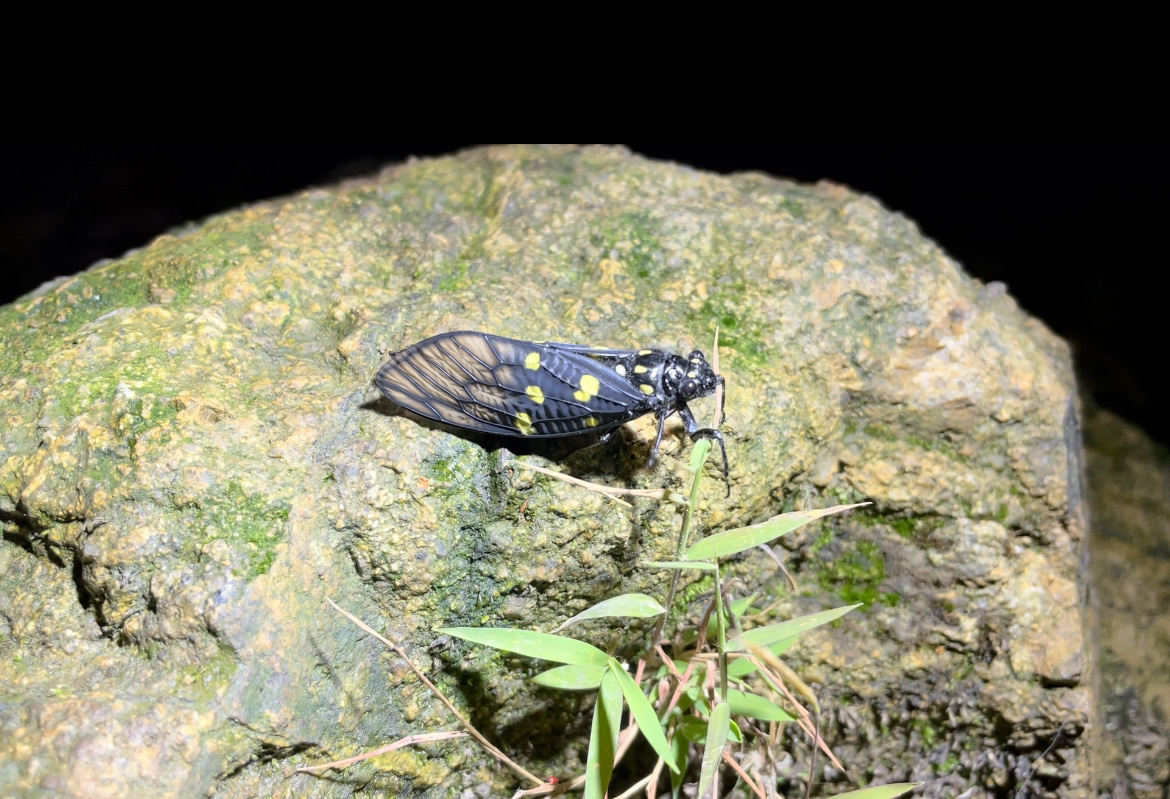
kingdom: Animalia
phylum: Arthropoda
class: Insecta
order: Hemiptera
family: Cicadidae
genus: Gaeana
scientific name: Gaeana maculata
